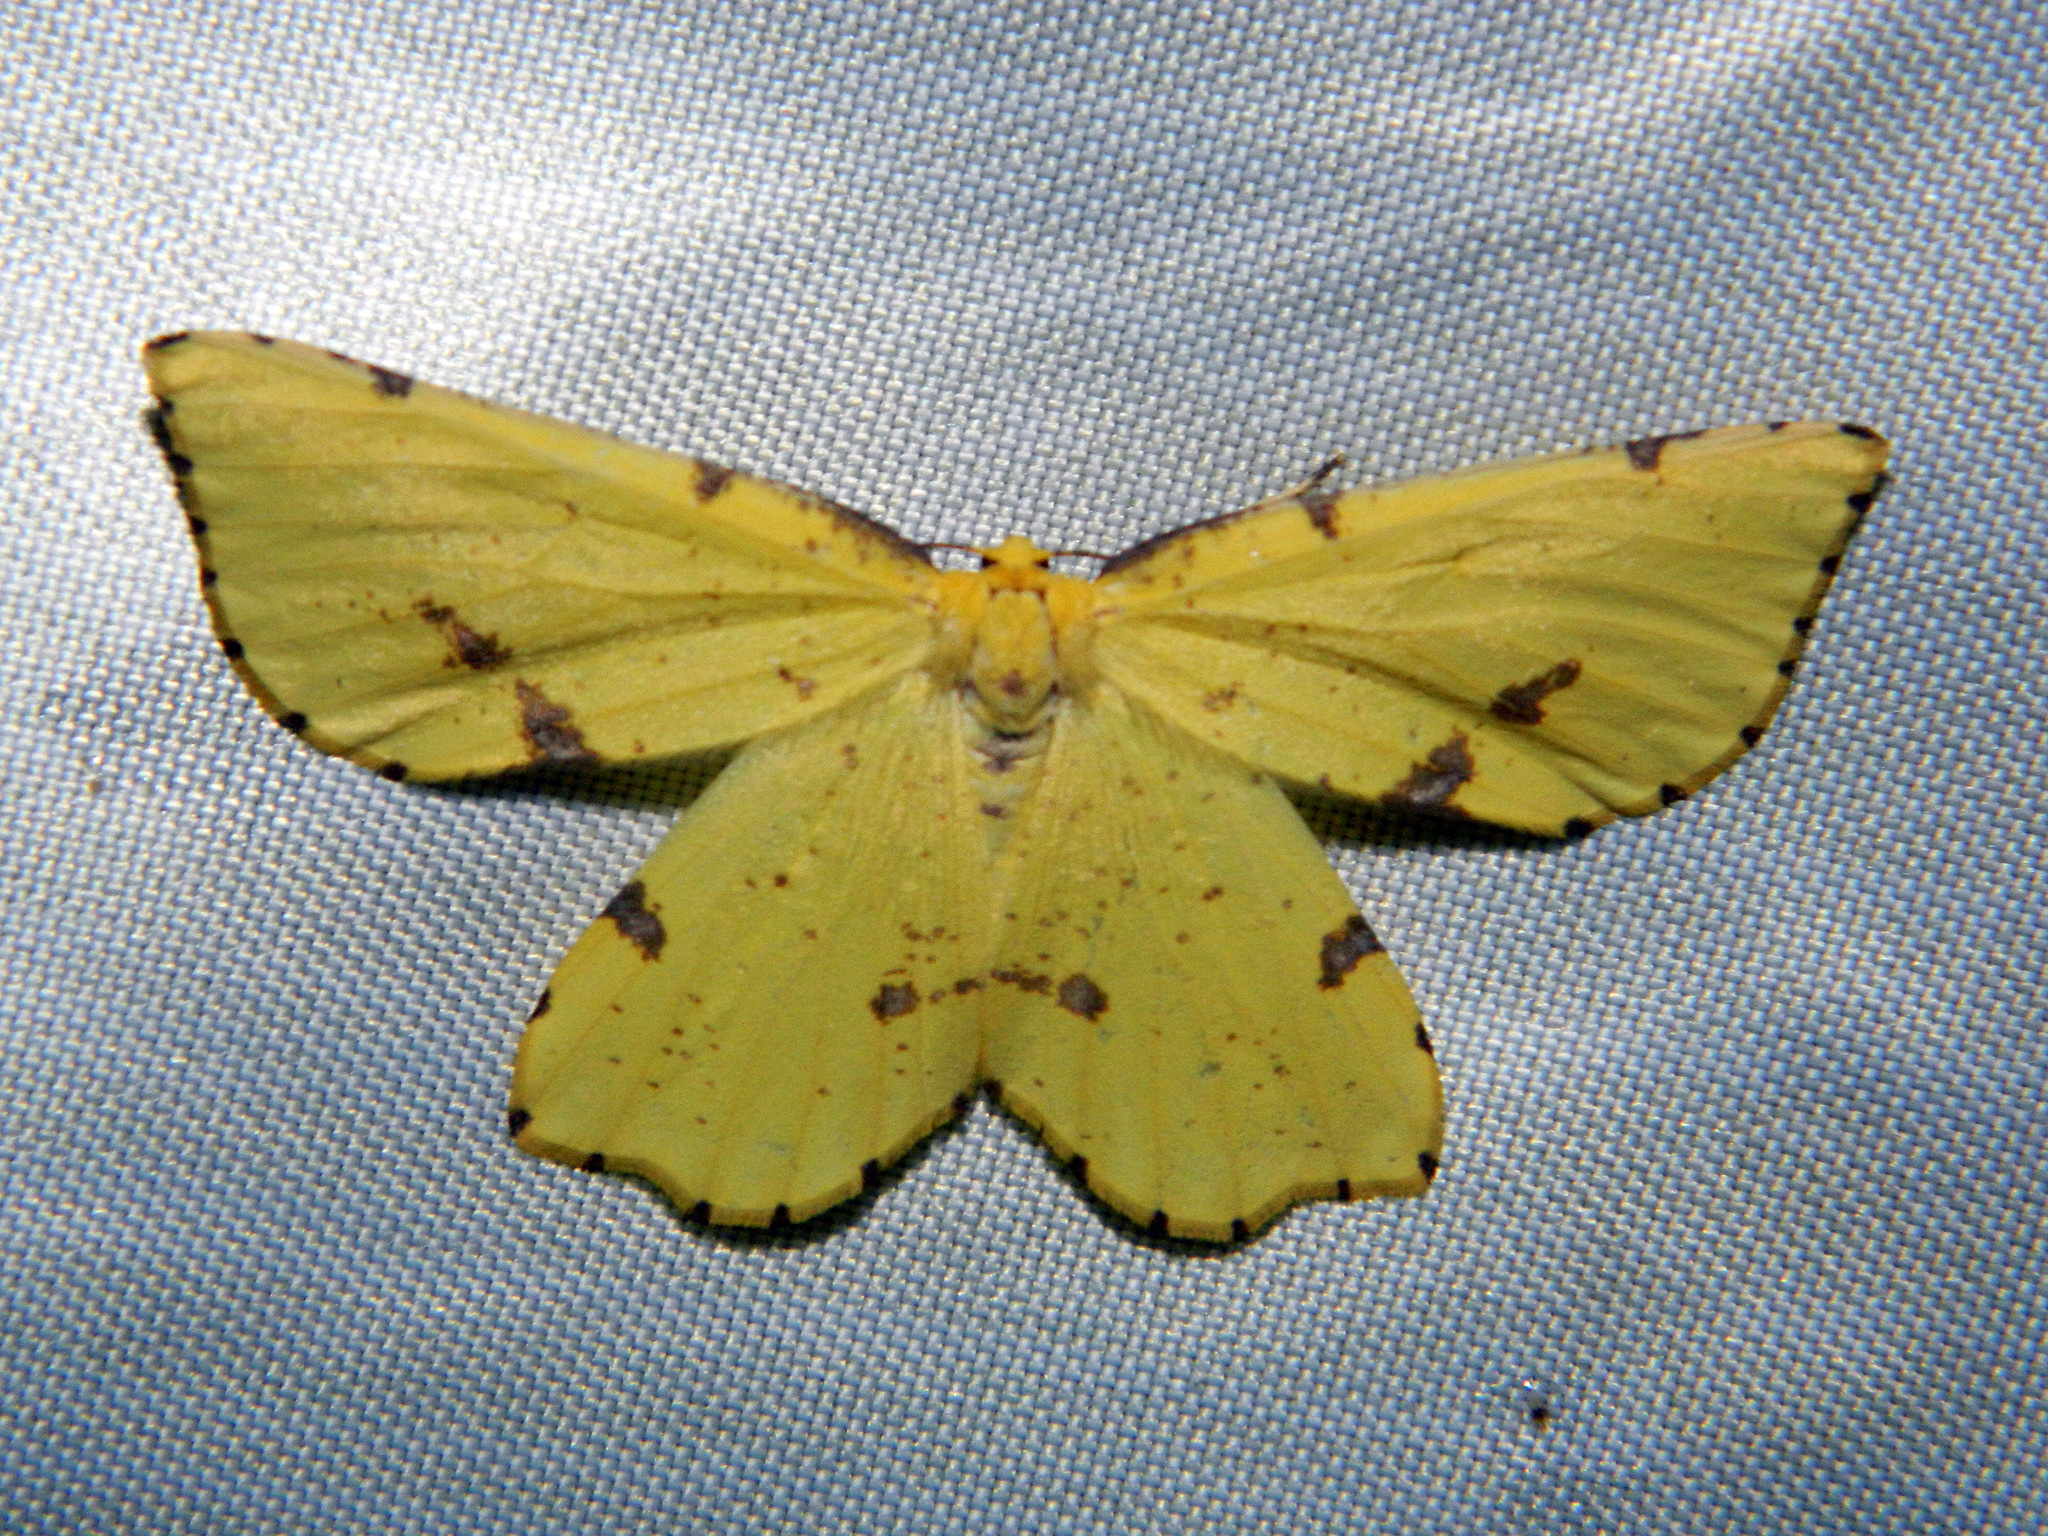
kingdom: Animalia
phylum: Arthropoda
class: Insecta
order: Lepidoptera
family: Geometridae
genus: Xanthotype
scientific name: Xanthotype
